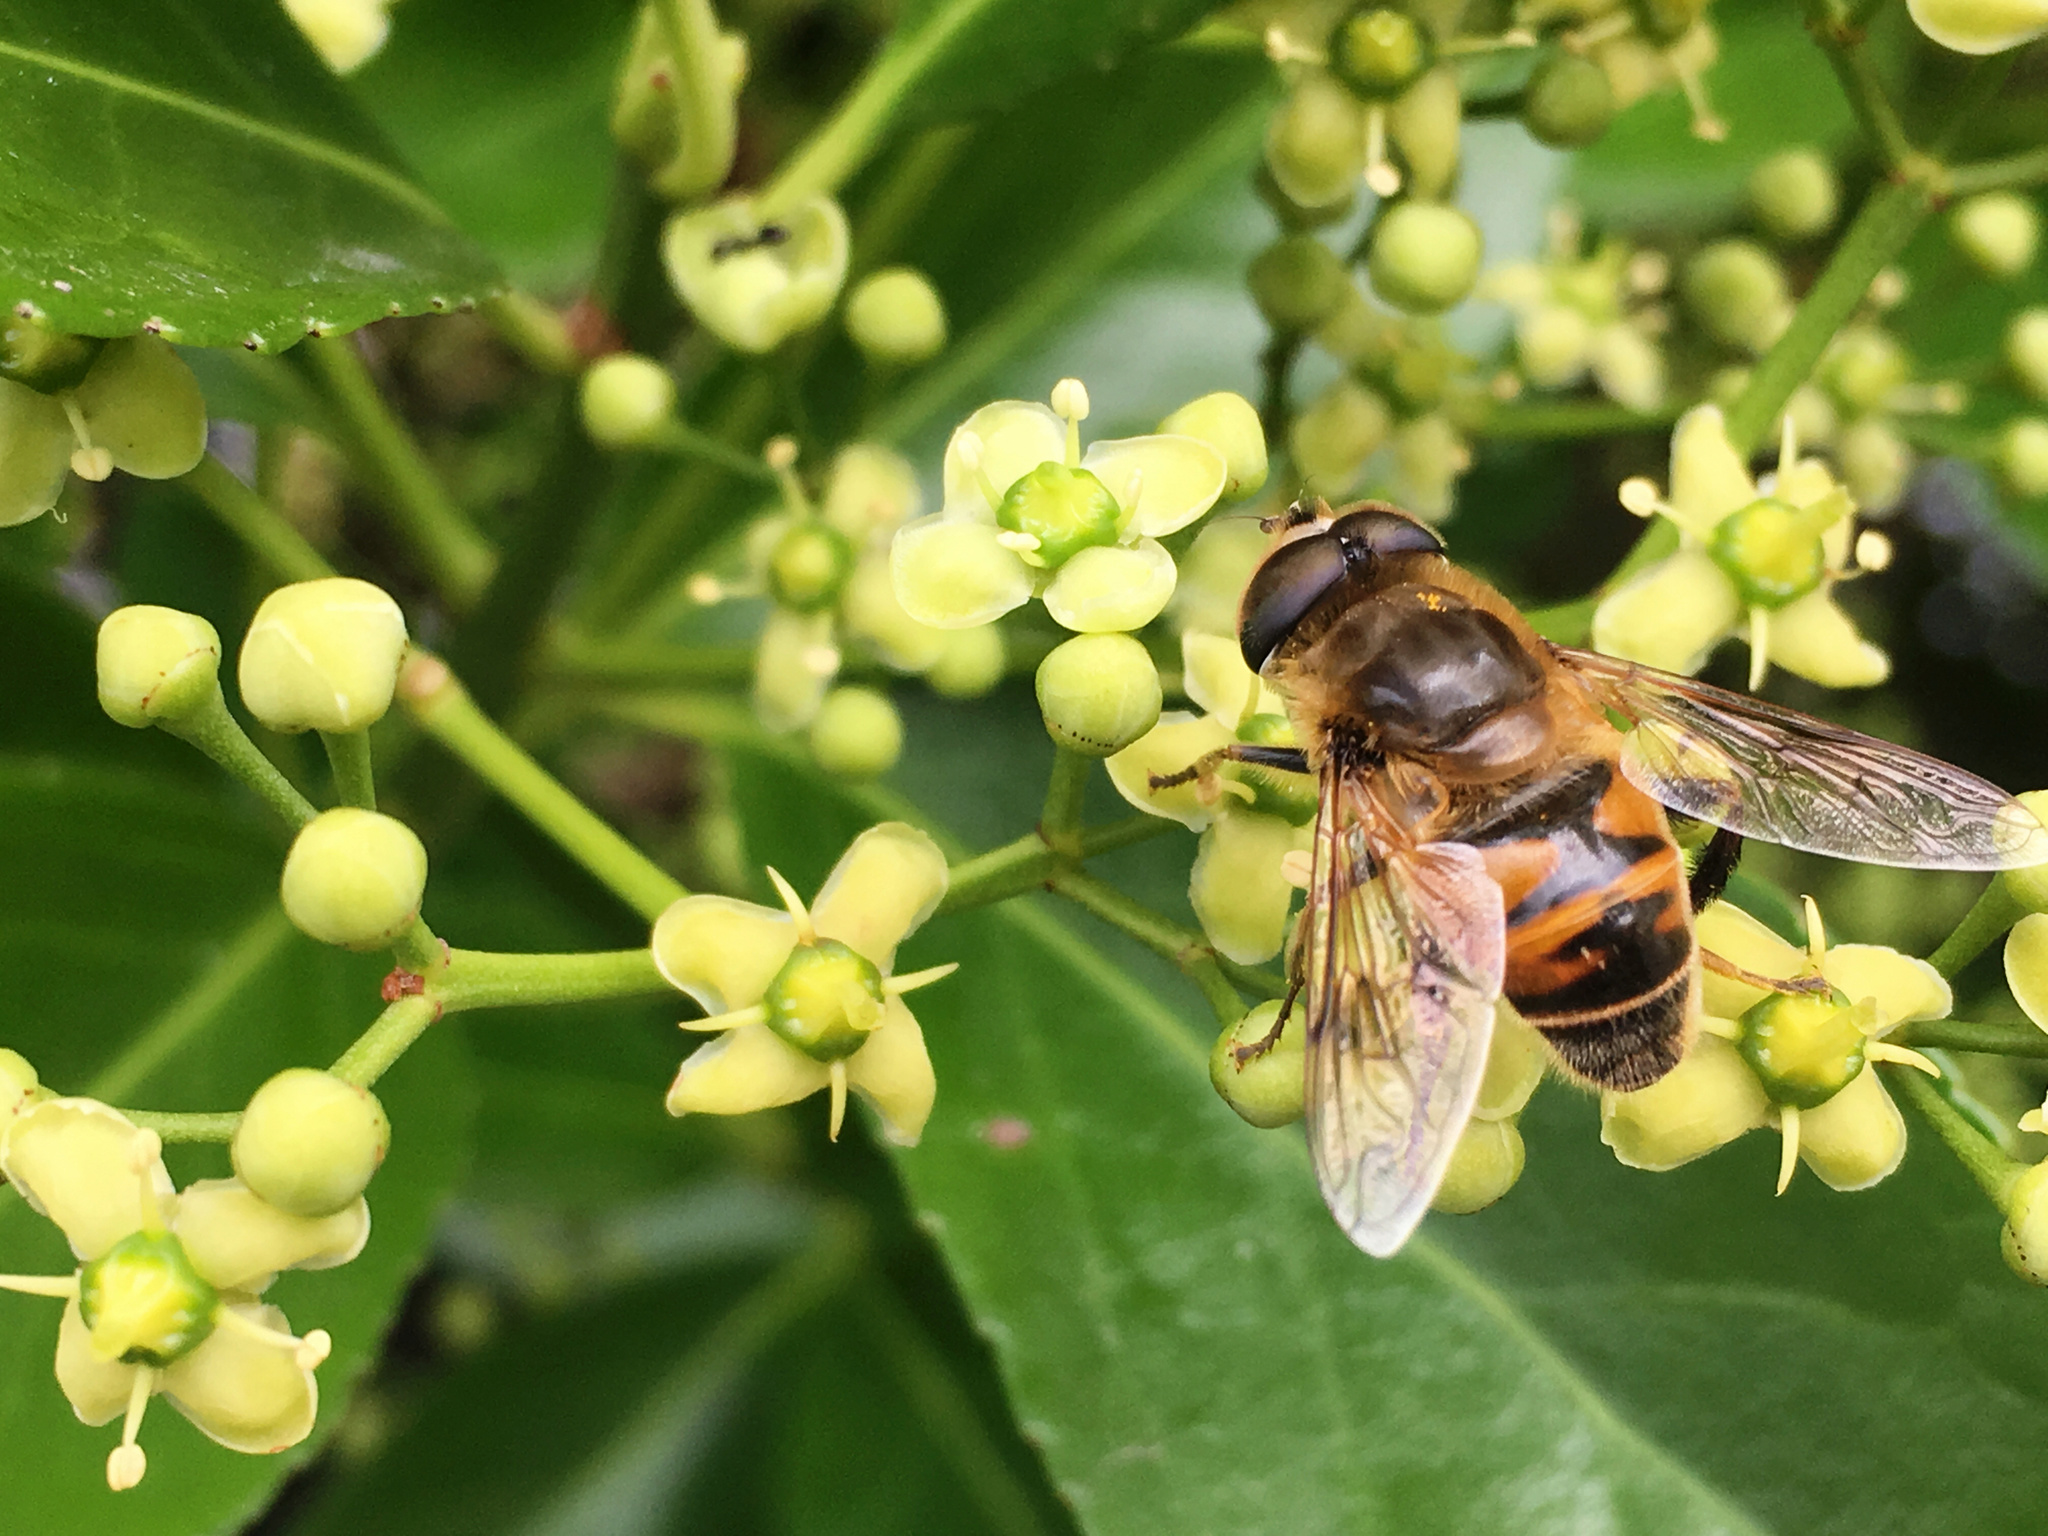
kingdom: Animalia
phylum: Arthropoda
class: Insecta
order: Diptera
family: Syrphidae
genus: Eristalis
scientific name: Eristalis tenax
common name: Drone fly
